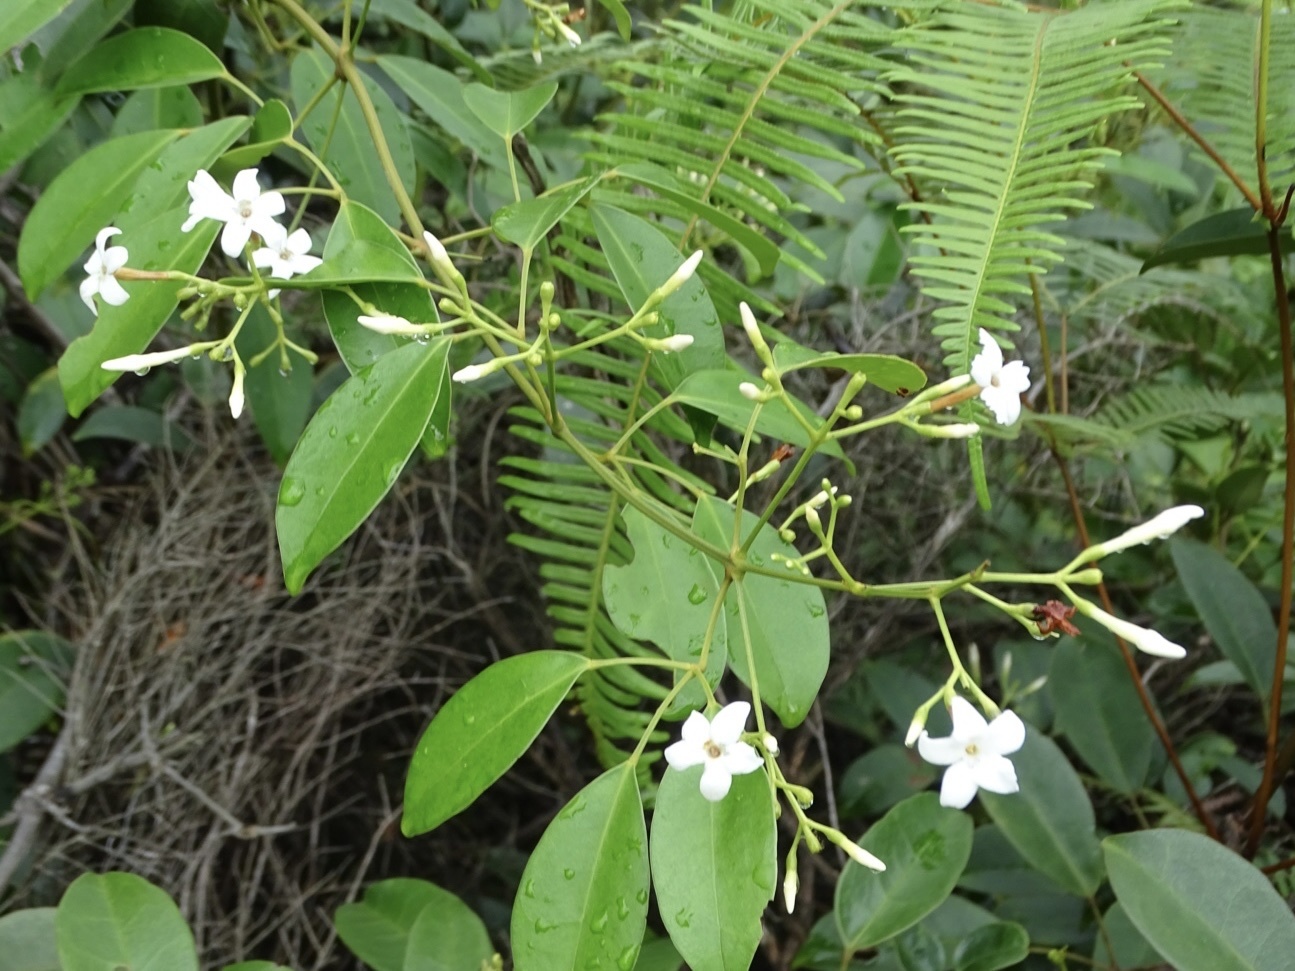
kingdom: Plantae
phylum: Tracheophyta
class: Magnoliopsida
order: Lamiales
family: Oleaceae
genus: Jasminum
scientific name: Jasminum lanceolaria
